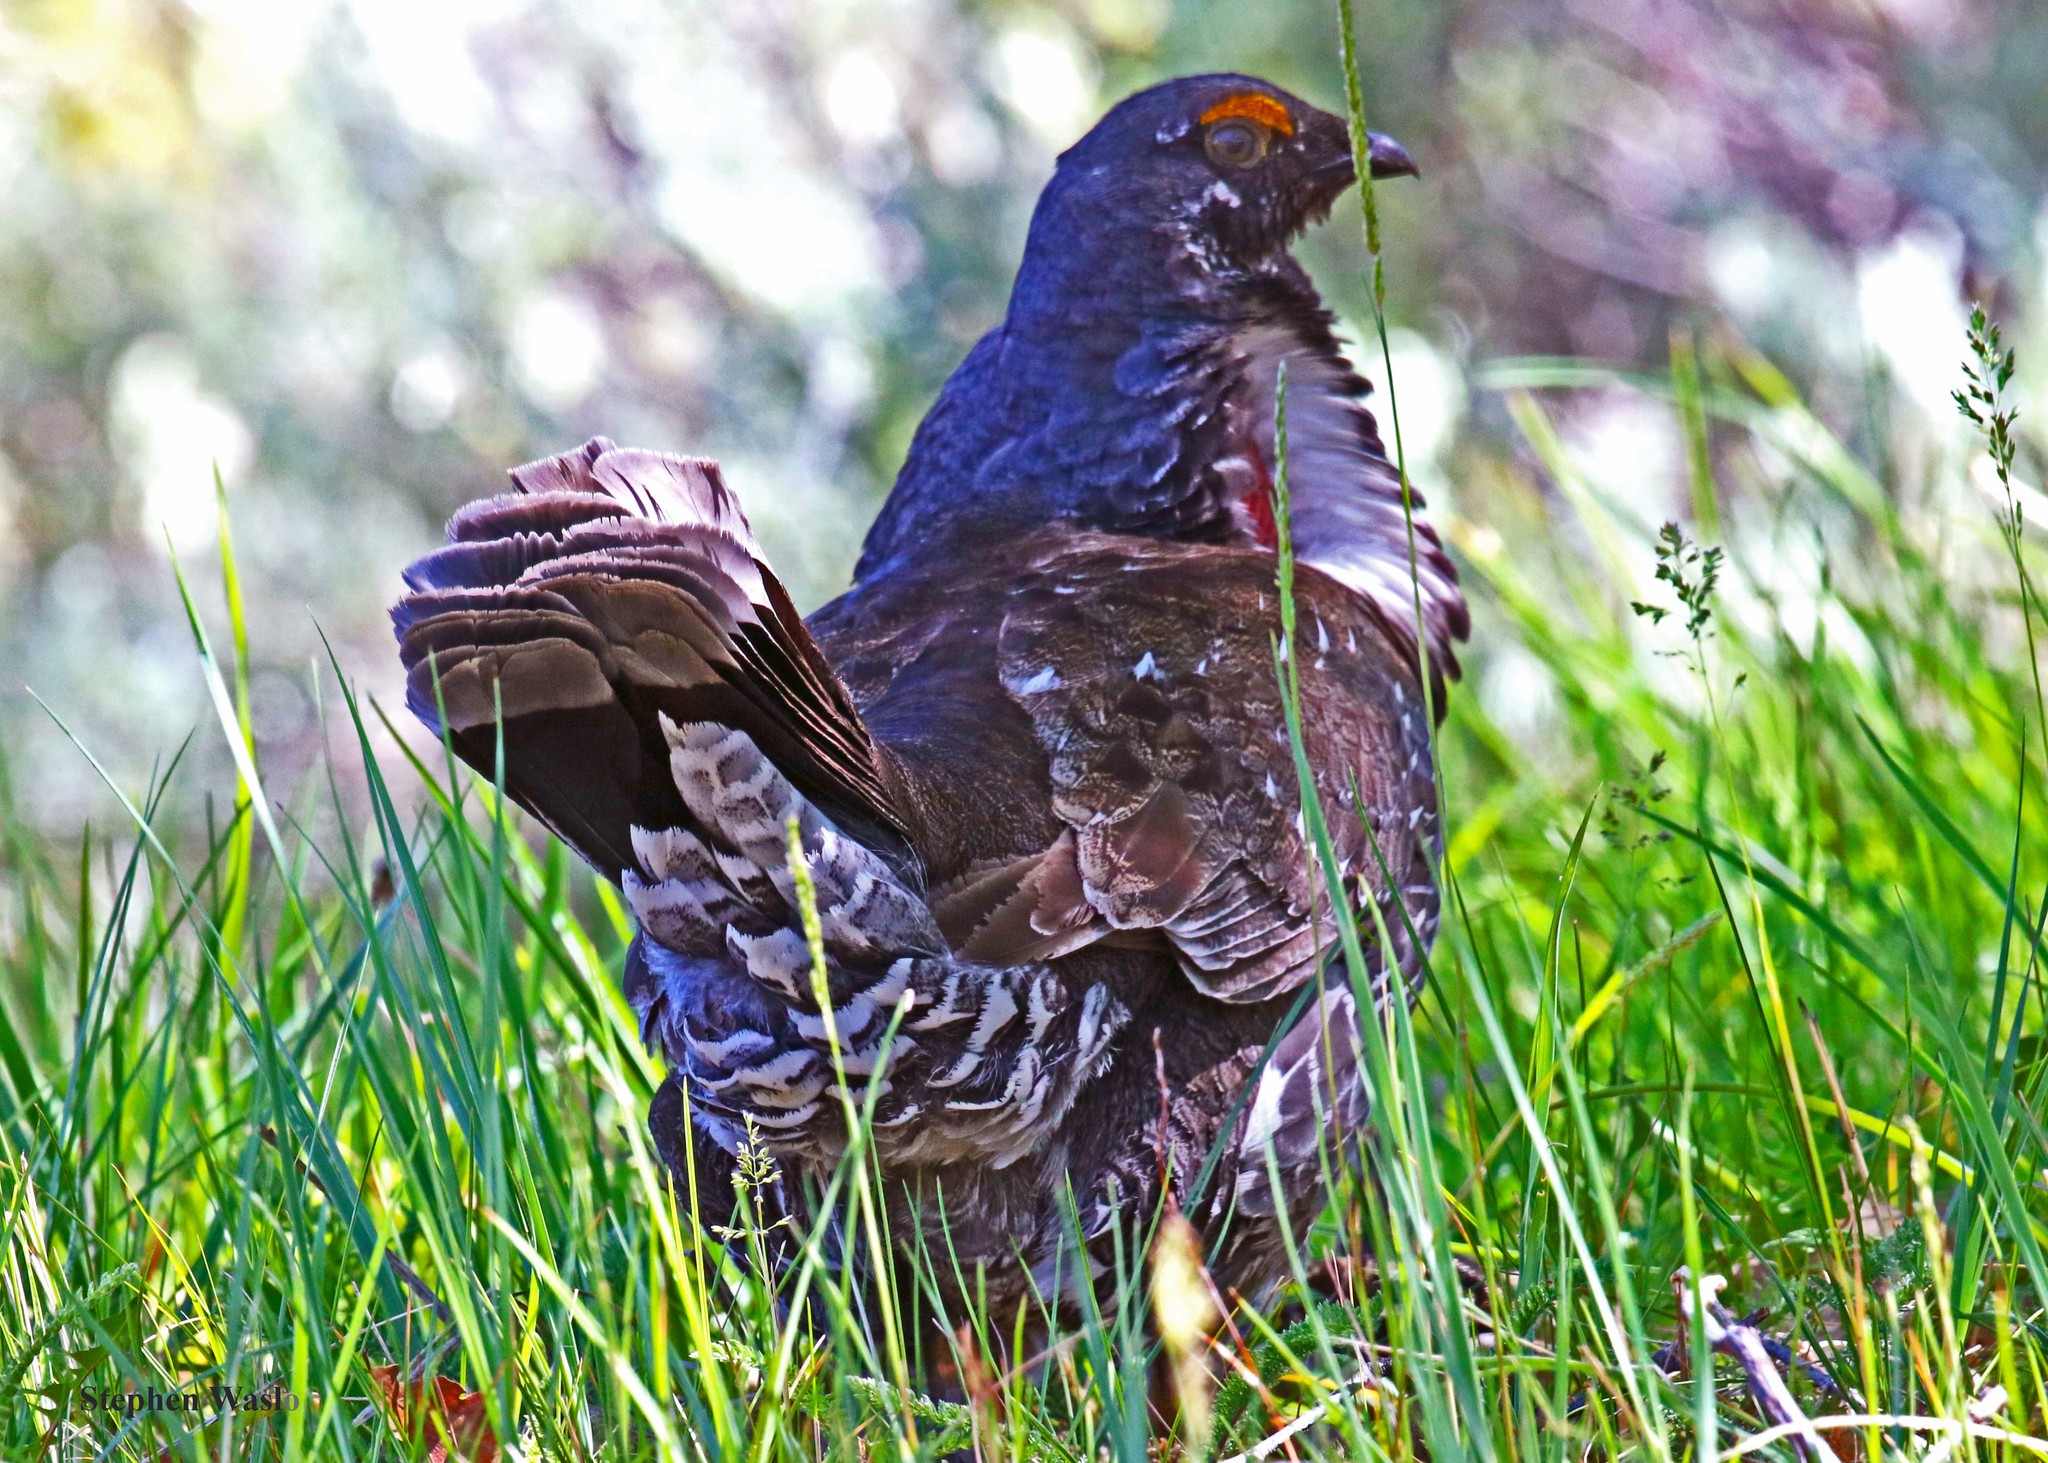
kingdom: Animalia
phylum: Chordata
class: Aves
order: Galliformes
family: Phasianidae
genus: Dendragapus
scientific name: Dendragapus obscurus
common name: Dusky grouse
